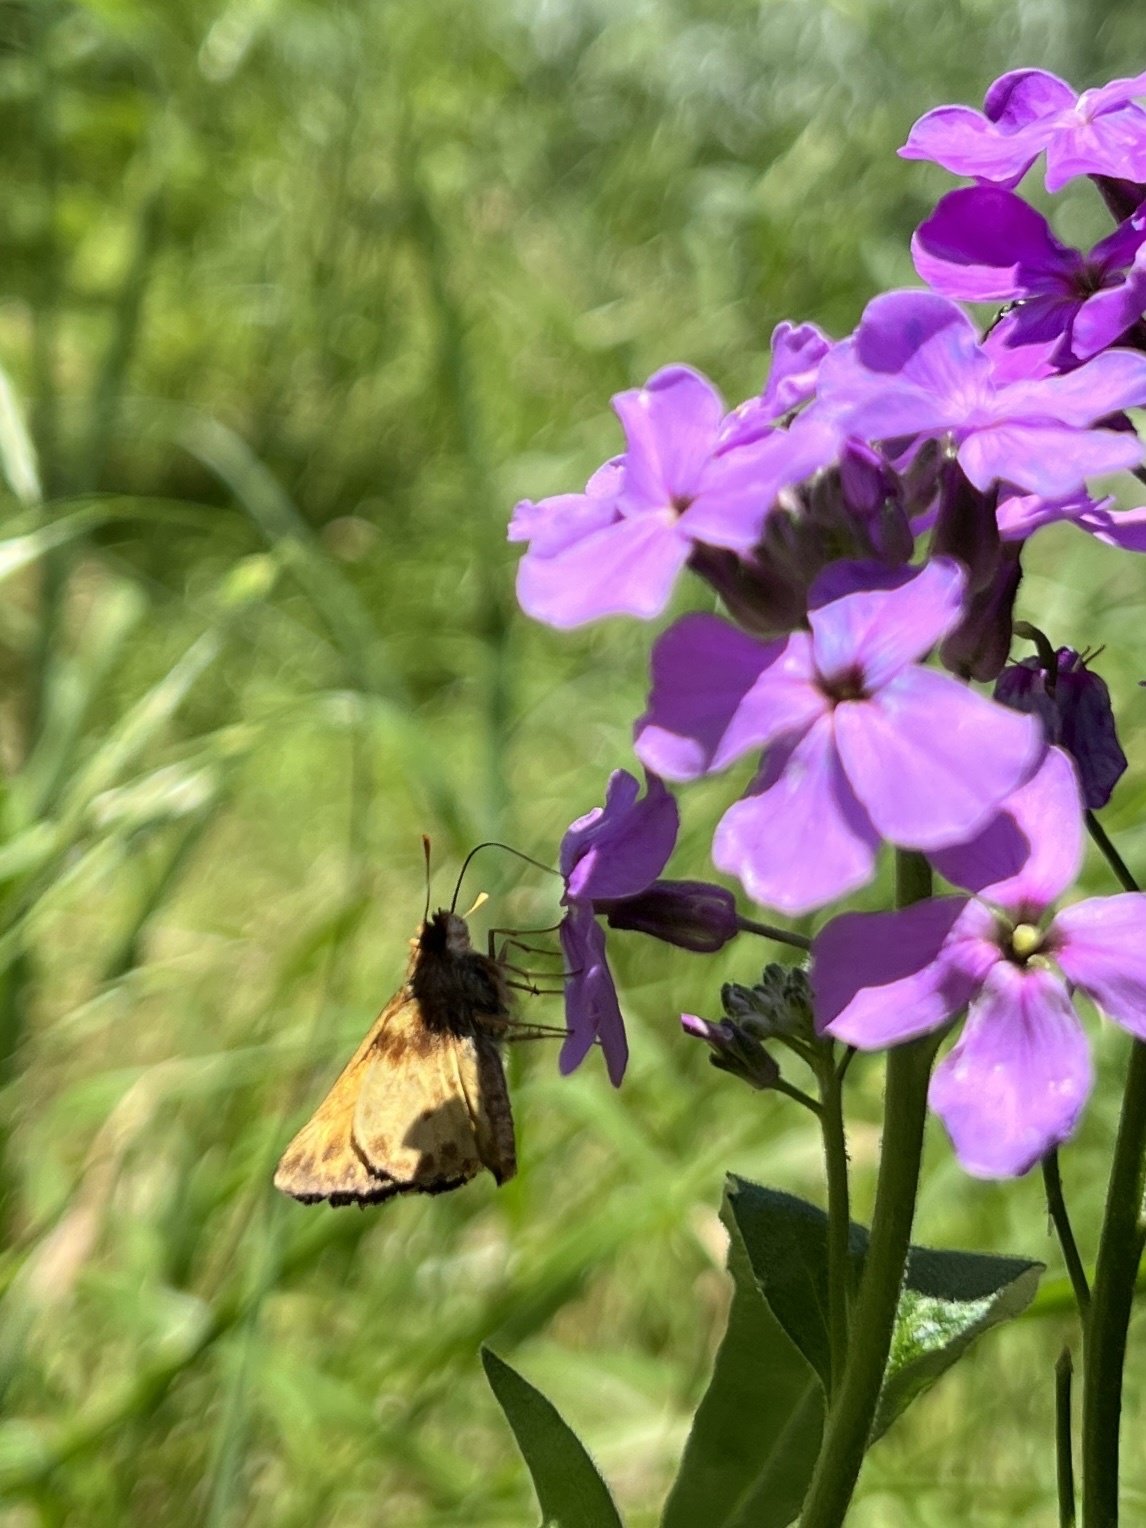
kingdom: Animalia
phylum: Arthropoda
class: Insecta
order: Lepidoptera
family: Hesperiidae
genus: Lon
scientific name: Lon zabulon
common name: Zabulon skipper
